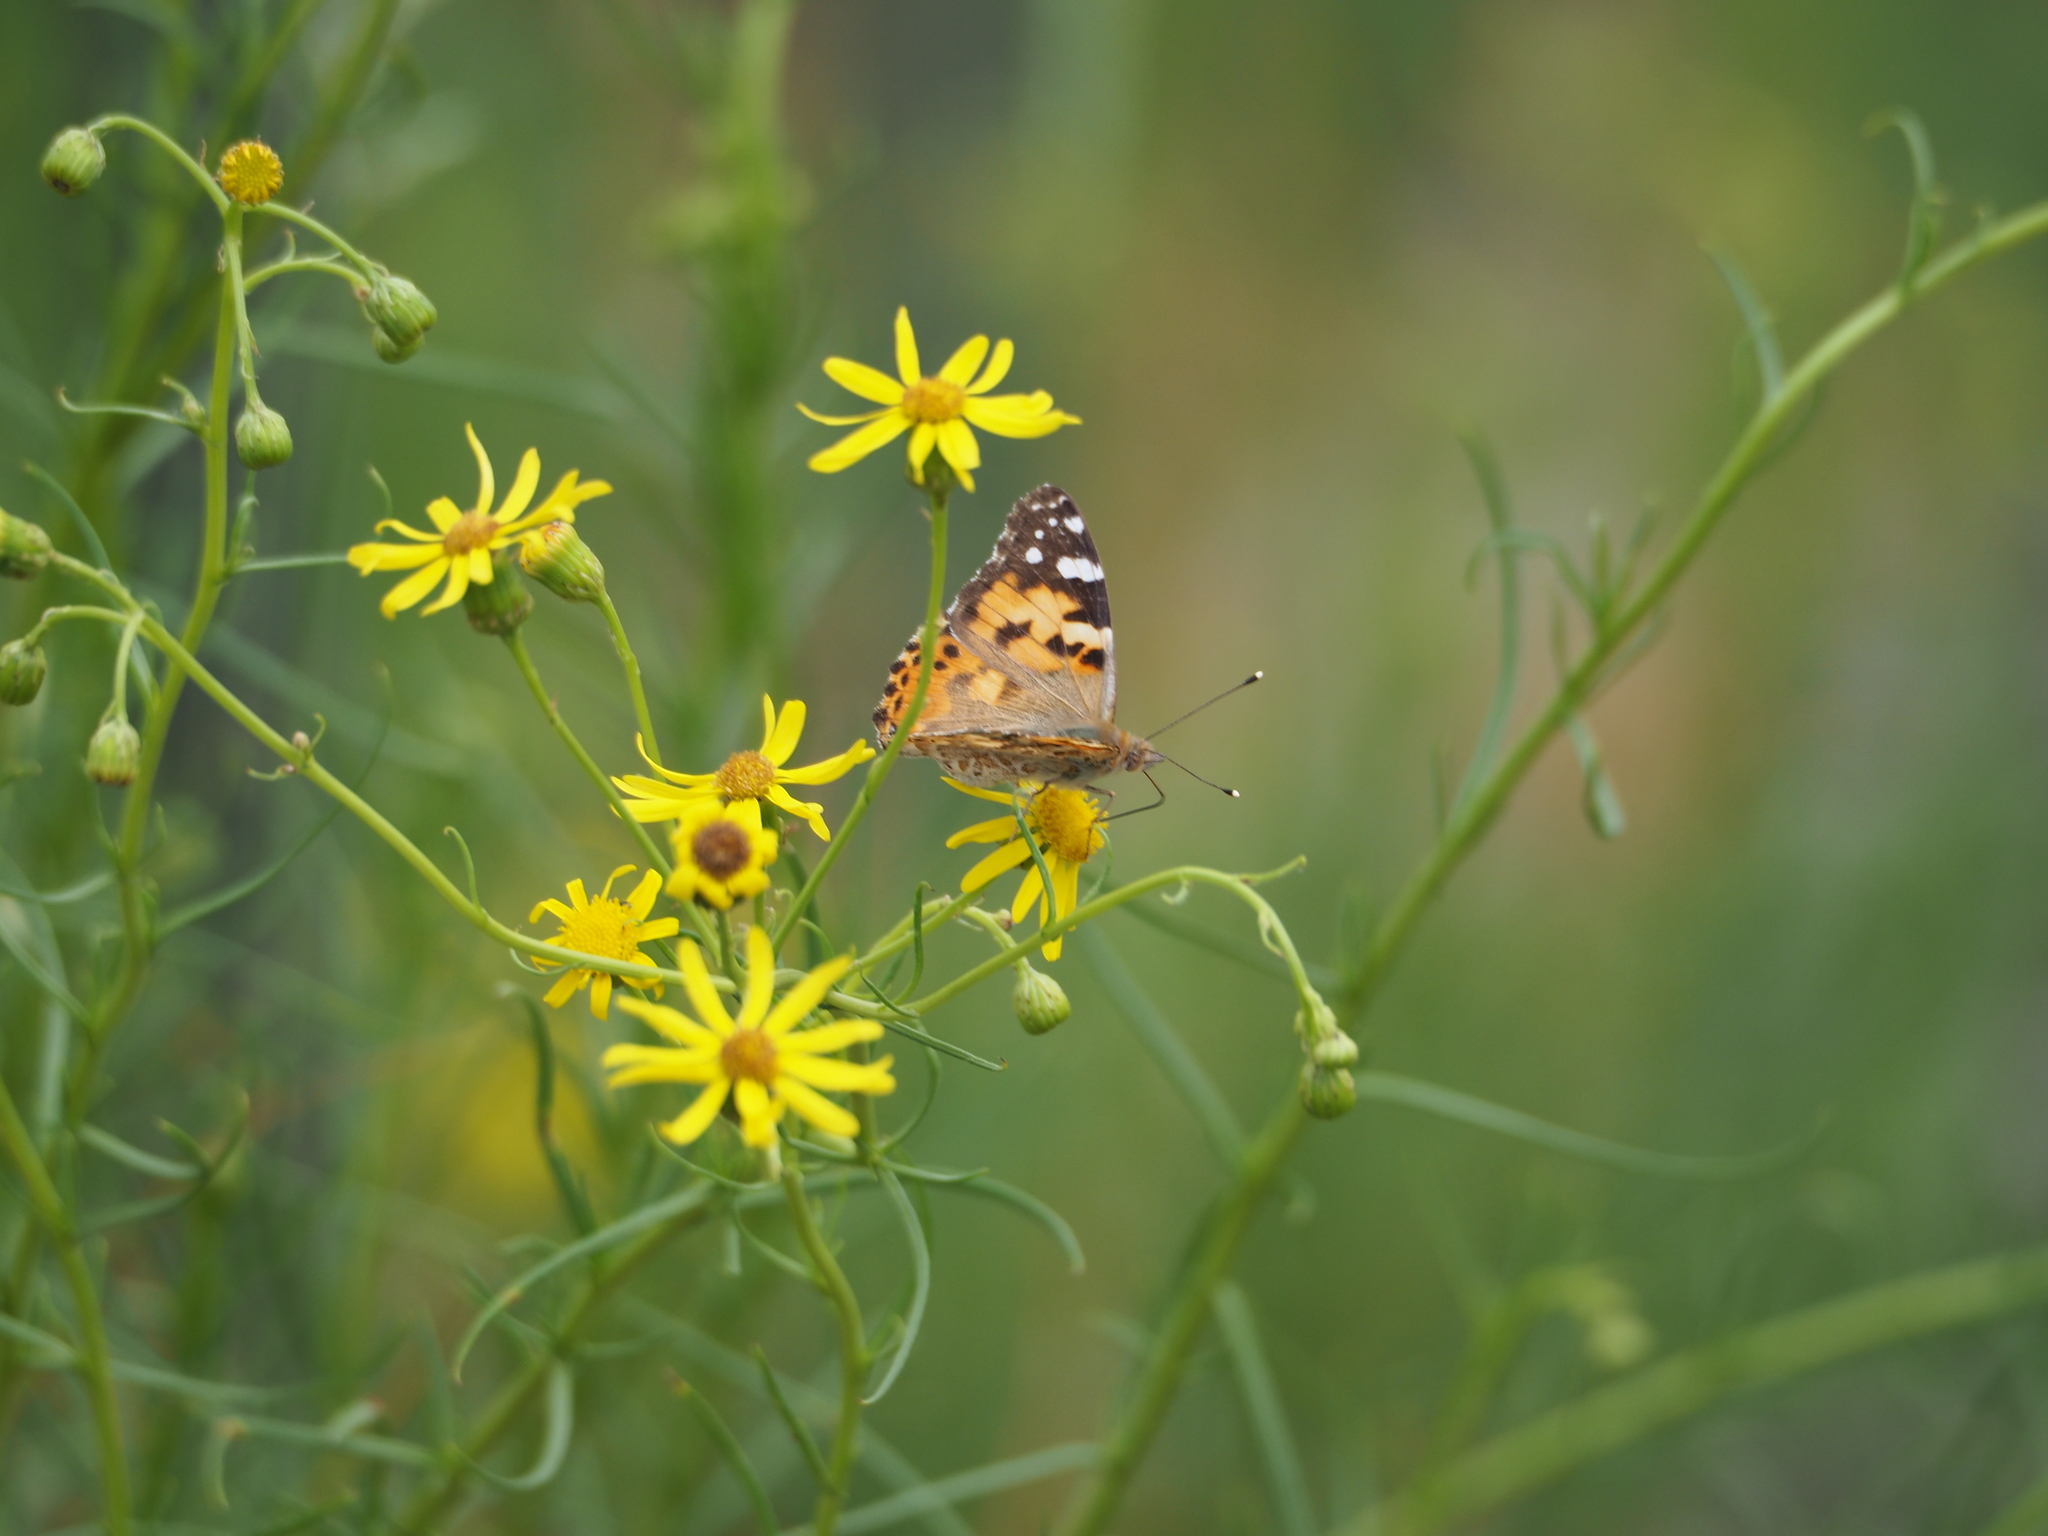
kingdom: Animalia
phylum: Arthropoda
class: Insecta
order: Lepidoptera
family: Nymphalidae
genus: Vanessa
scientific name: Vanessa cardui
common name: Painted lady
